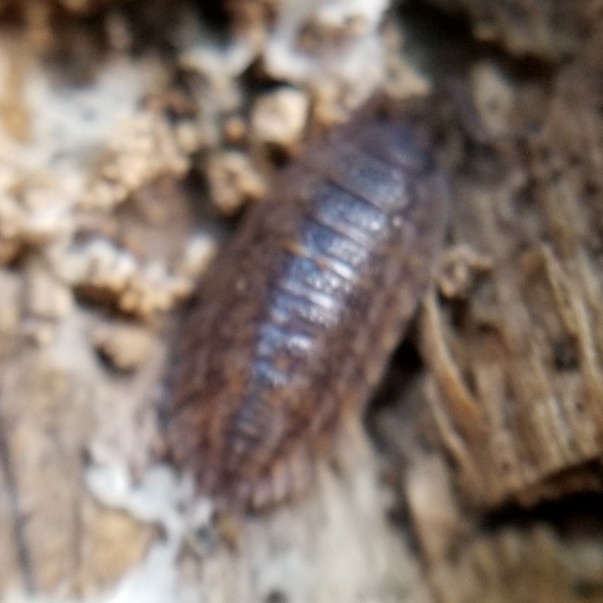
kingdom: Animalia
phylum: Arthropoda
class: Malacostraca
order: Isopoda
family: Trachelipodidae
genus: Trachelipus
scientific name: Trachelipus rathkii
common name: Isopod
